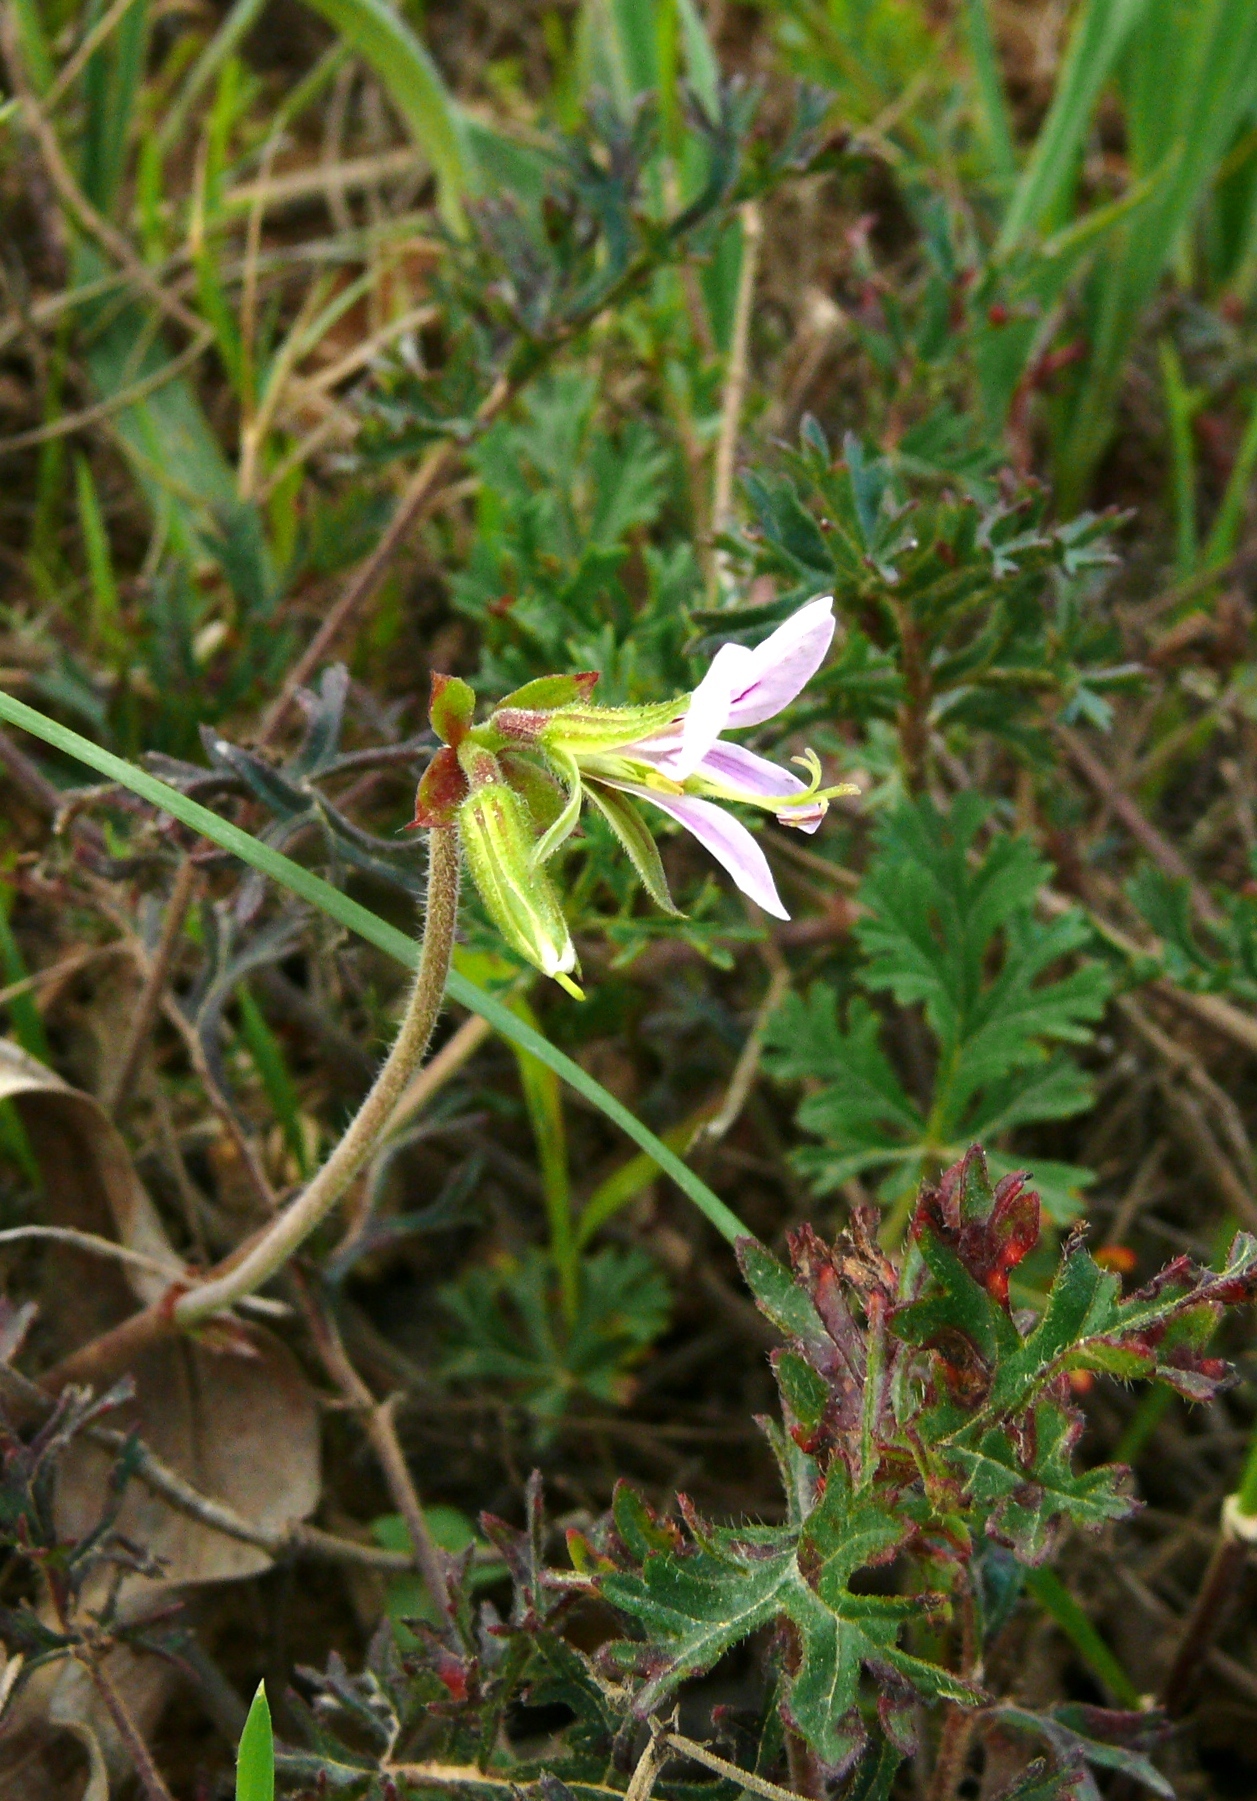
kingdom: Plantae
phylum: Tracheophyta
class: Magnoliopsida
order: Geraniales
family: Geraniaceae
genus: Pelargonium
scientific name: Pelargonium myrrhifolium
